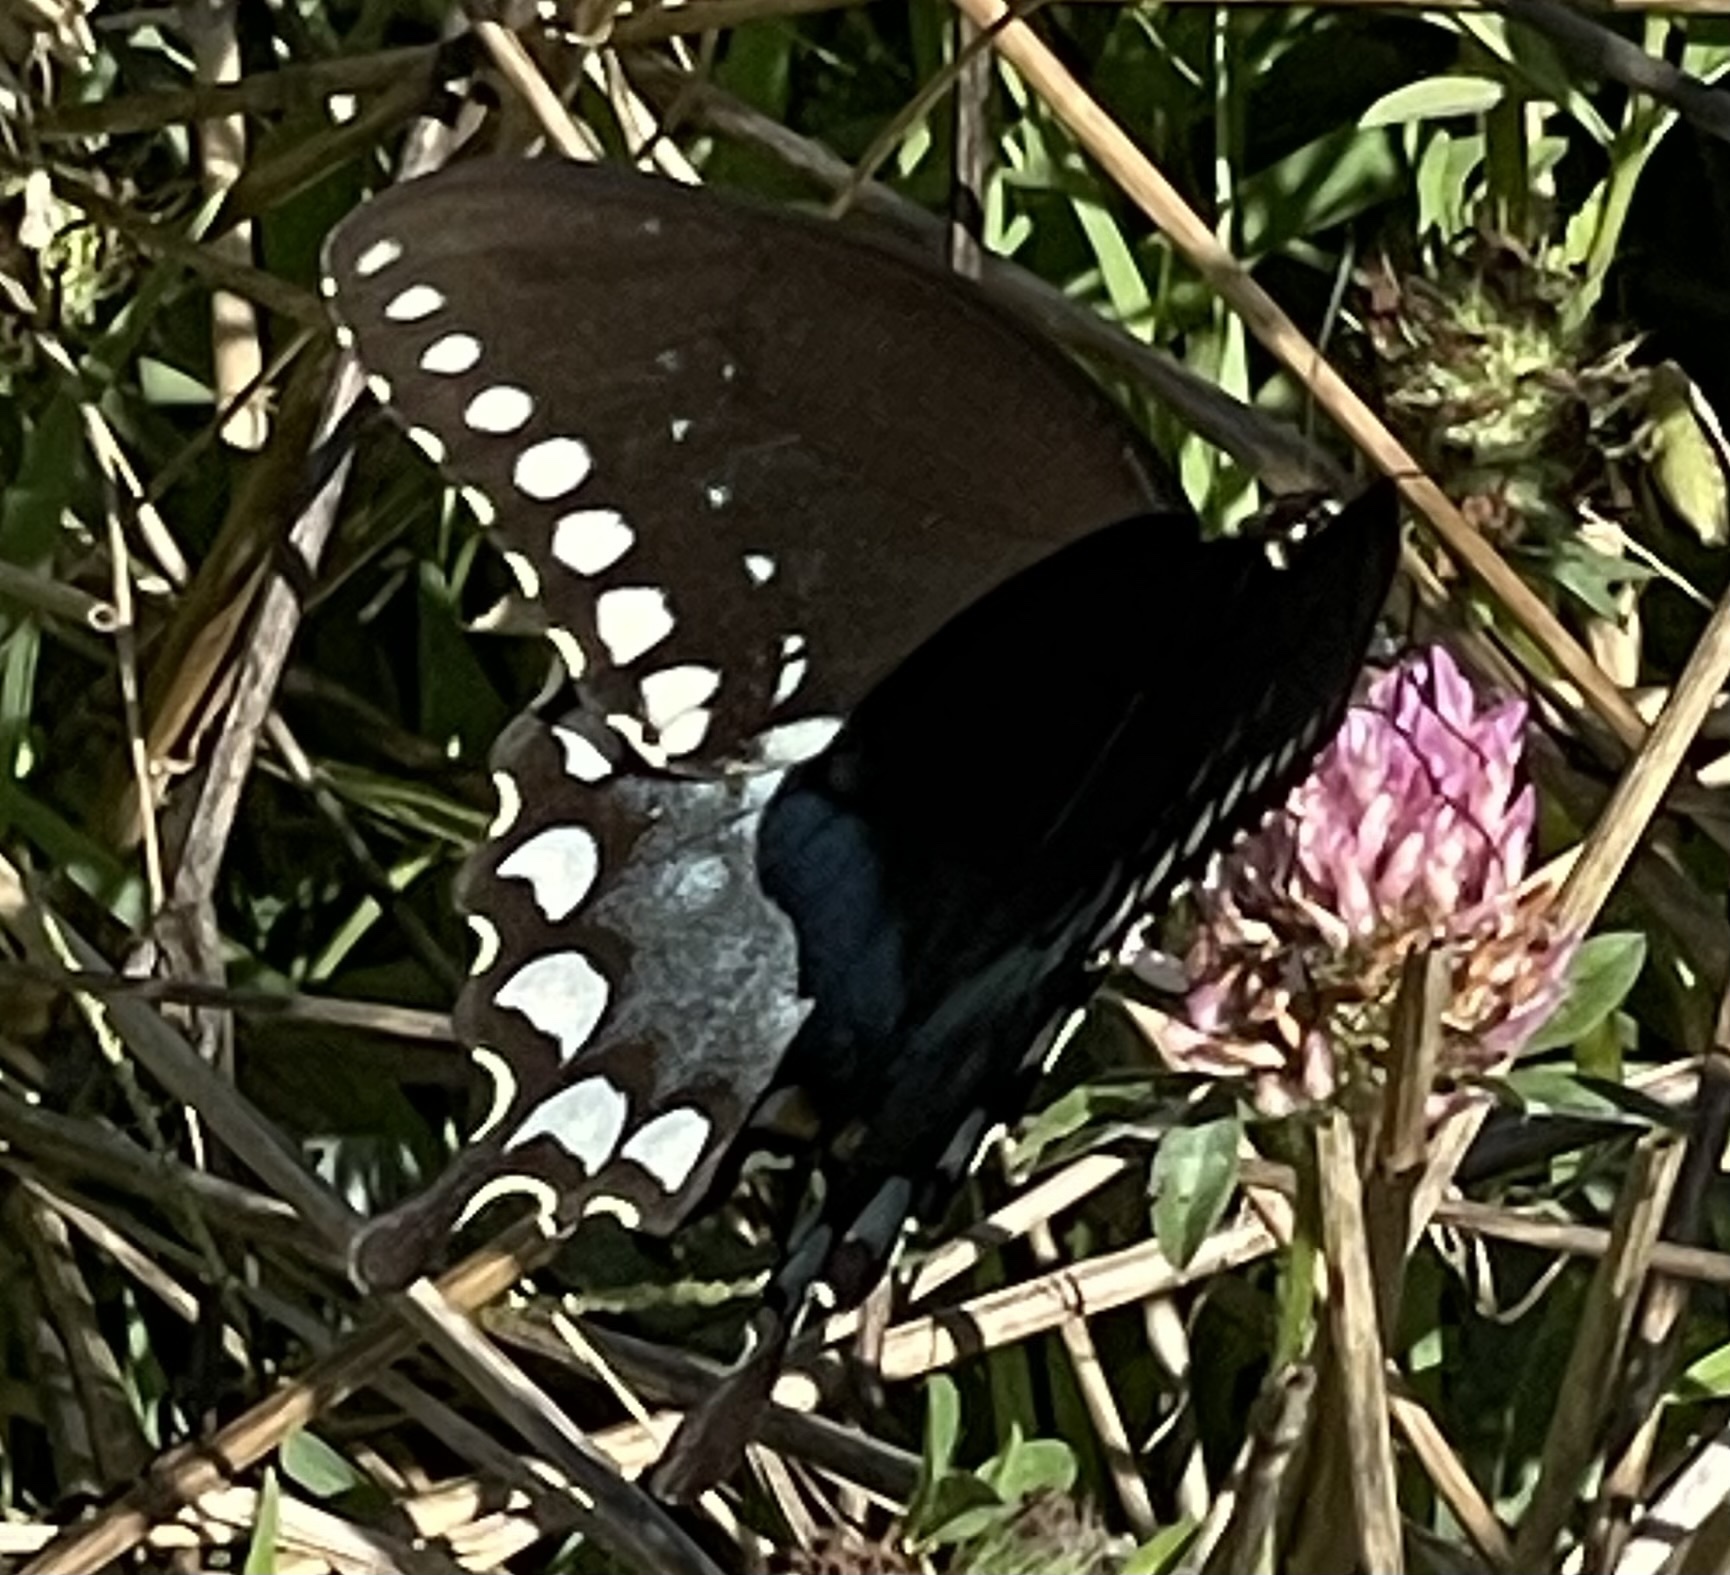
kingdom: Animalia
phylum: Arthropoda
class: Insecta
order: Lepidoptera
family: Papilionidae
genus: Papilio
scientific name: Papilio troilus
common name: Spicebush swallowtail
